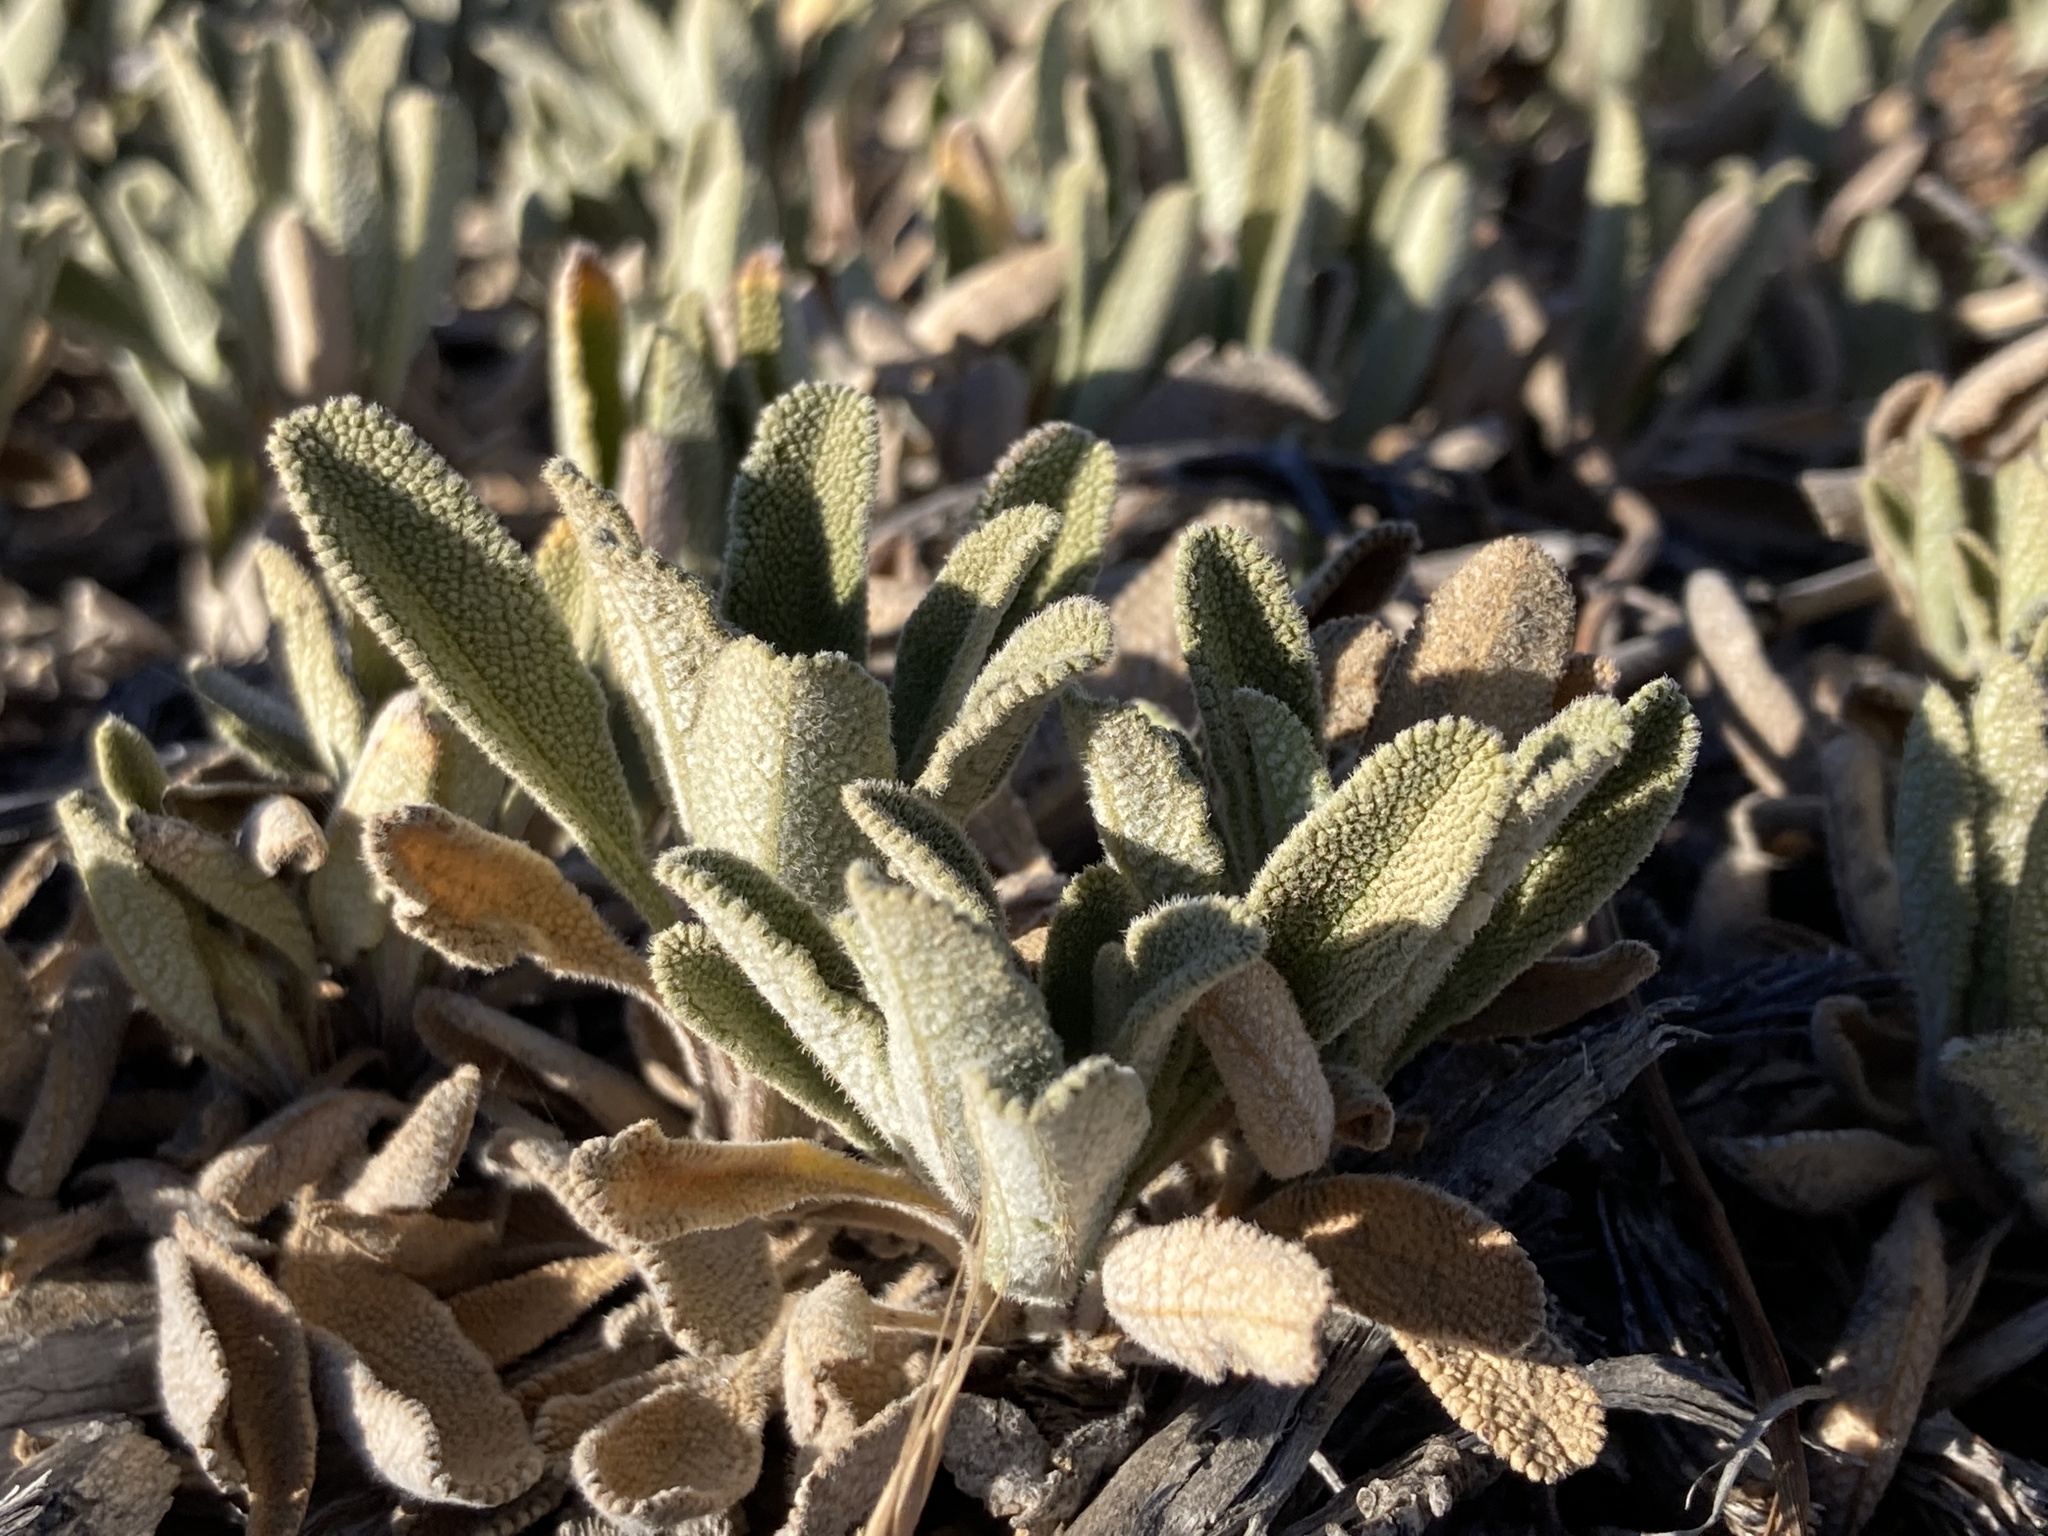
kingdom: Plantae
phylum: Tracheophyta
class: Magnoliopsida
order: Lamiales
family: Lamiaceae
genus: Salvia
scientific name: Salvia sonomensis
